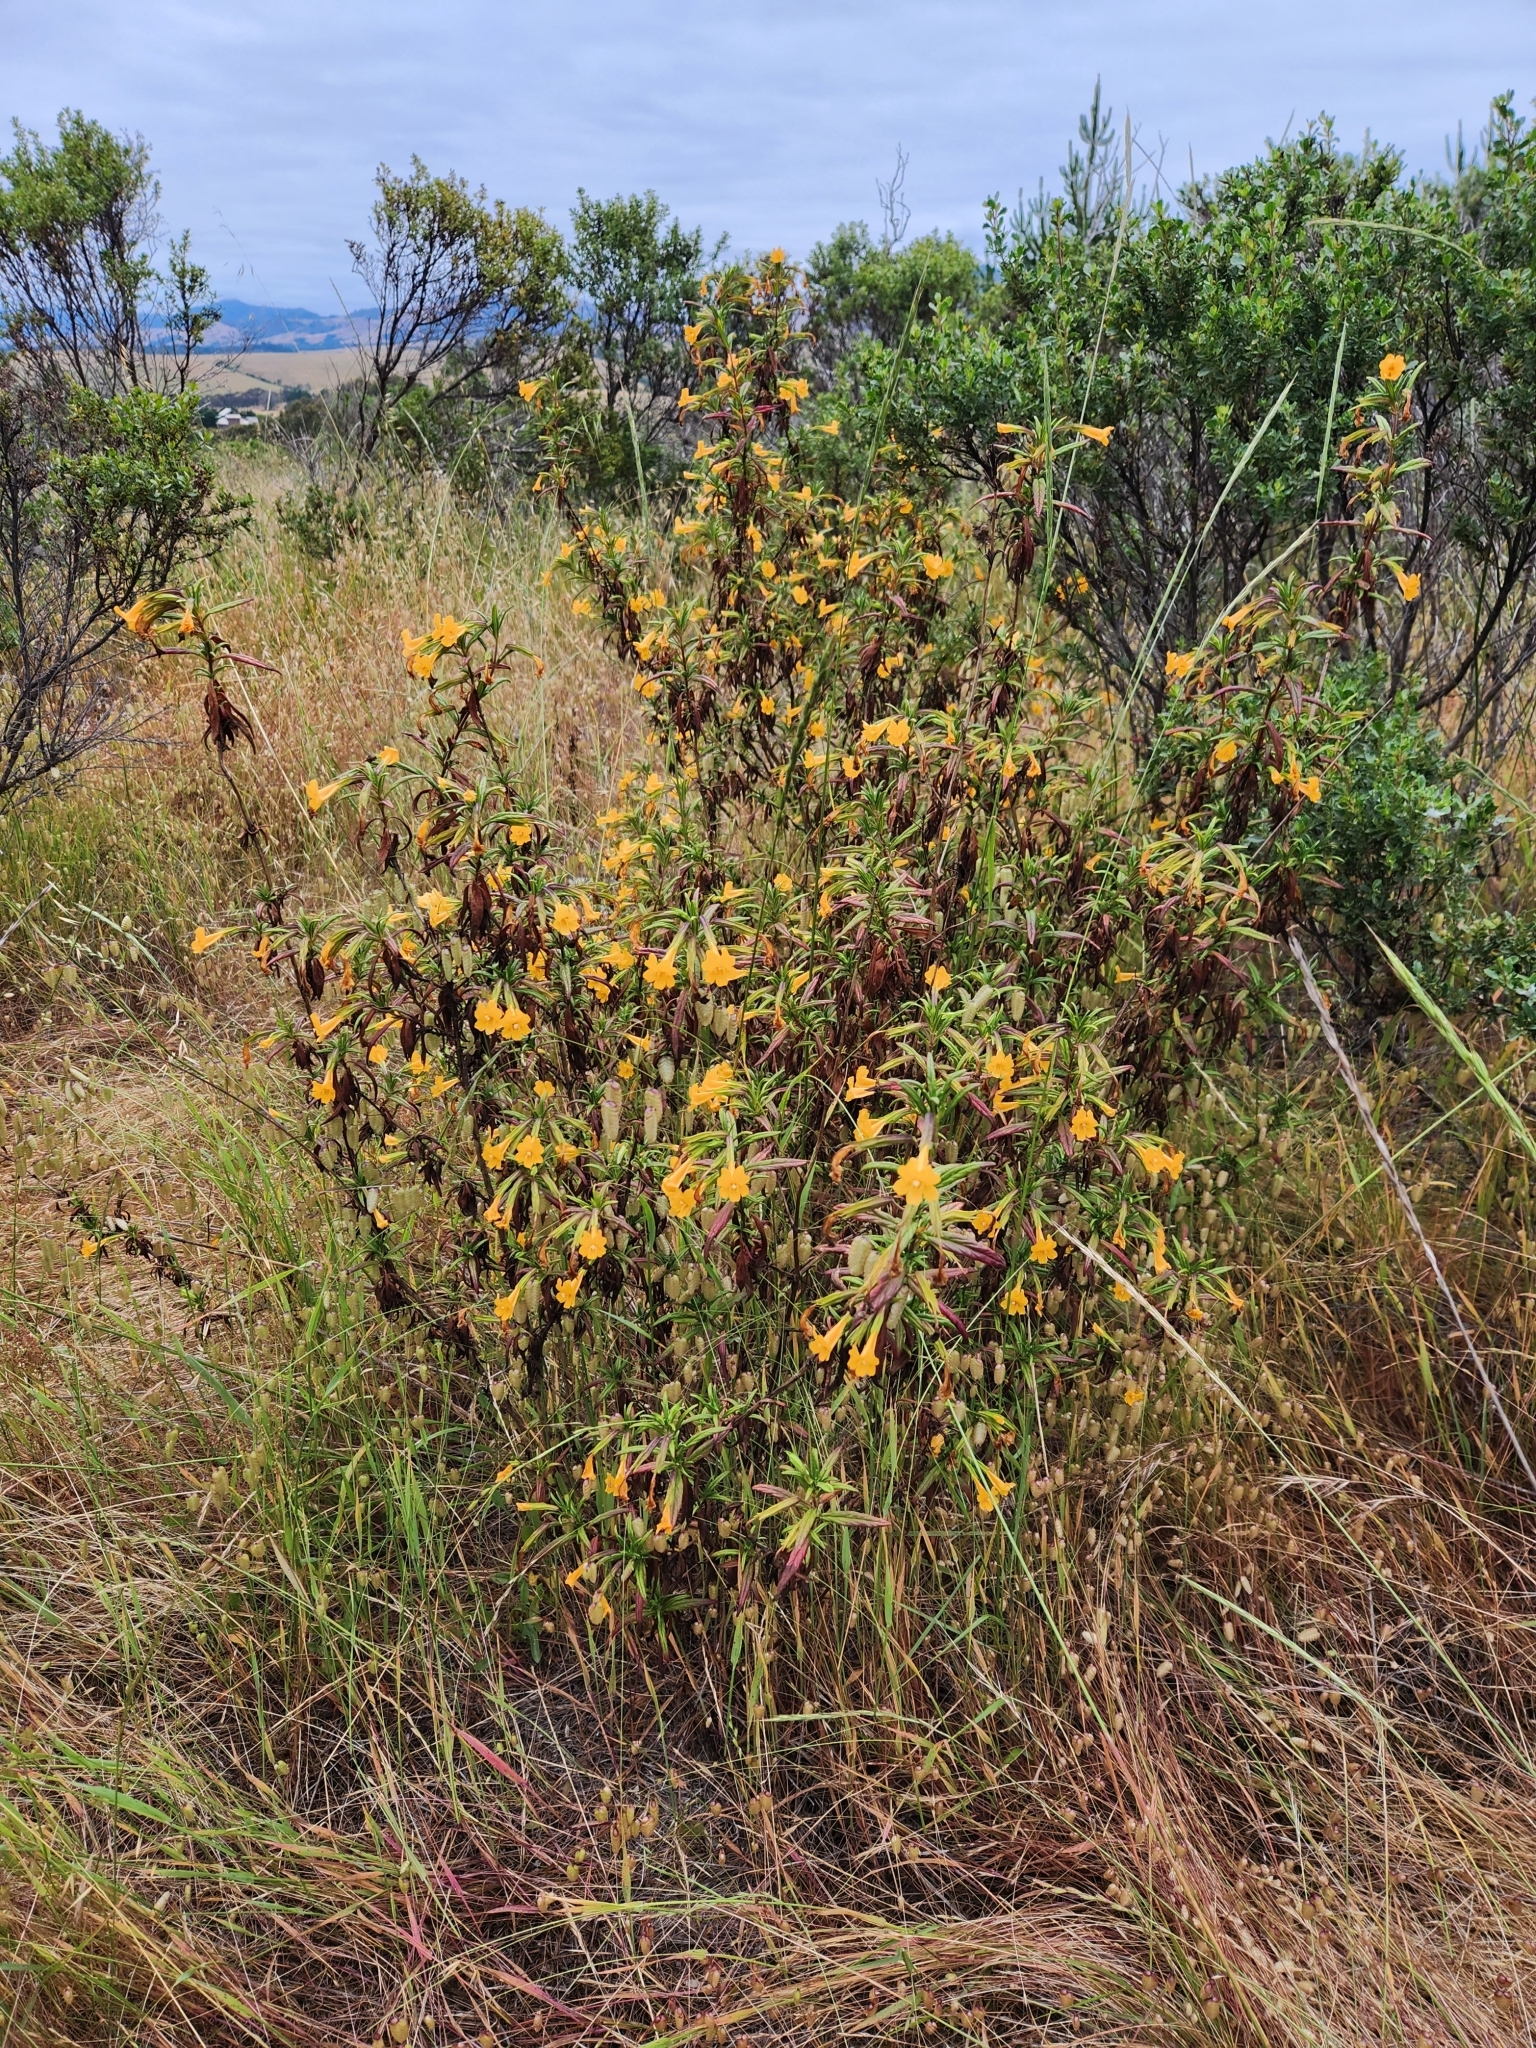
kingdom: Plantae
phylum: Tracheophyta
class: Magnoliopsida
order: Lamiales
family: Phrymaceae
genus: Diplacus
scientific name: Diplacus aurantiacus
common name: Bush monkey-flower
